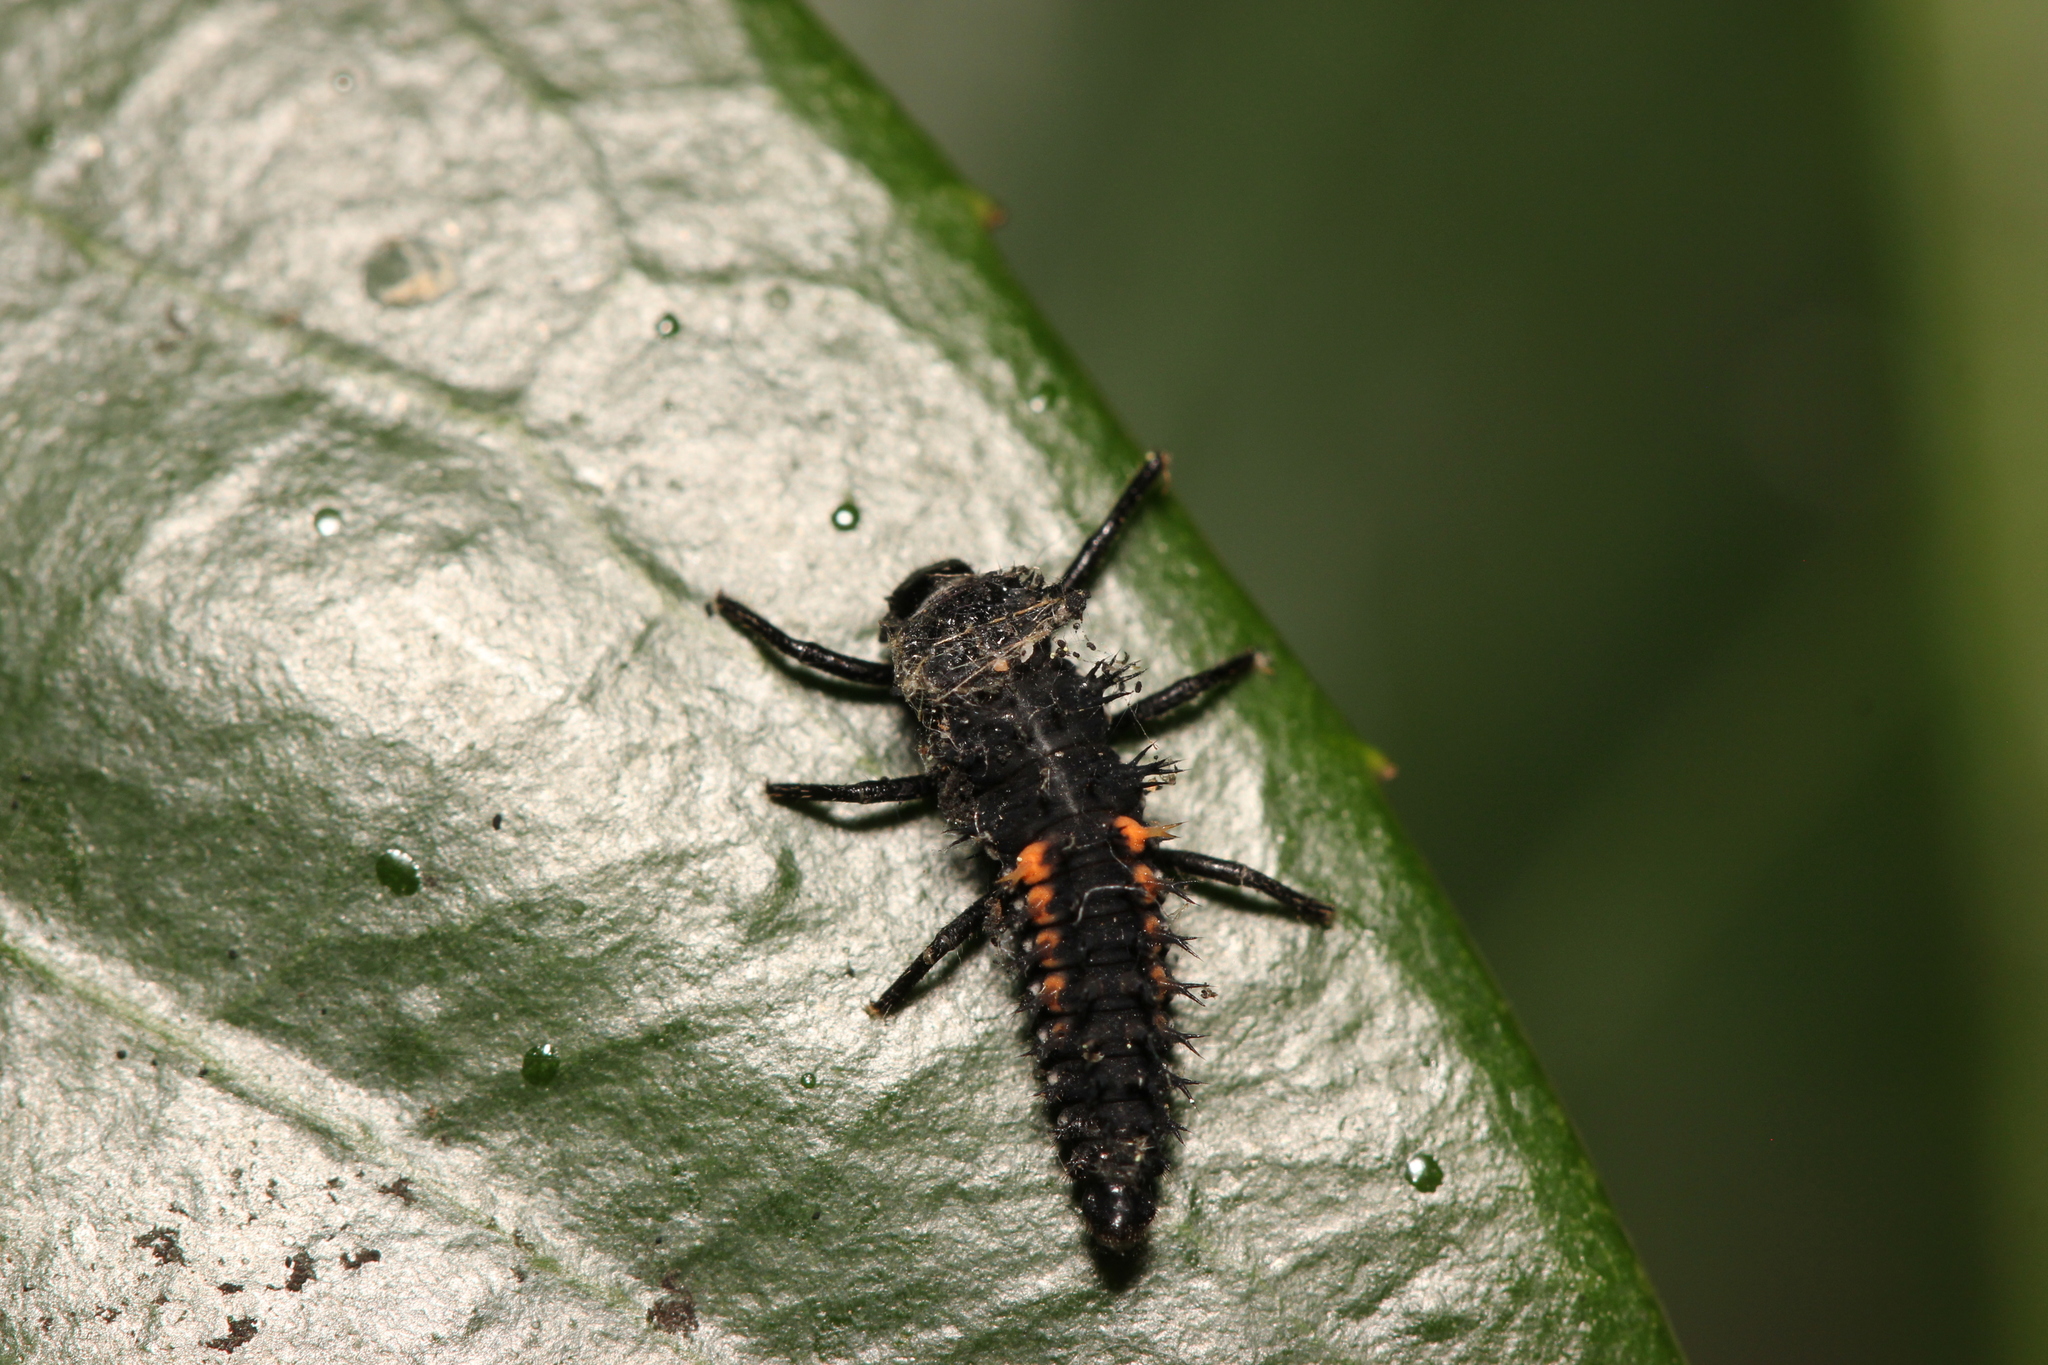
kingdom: Animalia
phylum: Arthropoda
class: Insecta
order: Coleoptera
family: Coccinellidae
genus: Harmonia
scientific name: Harmonia axyridis
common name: Harlequin ladybird
